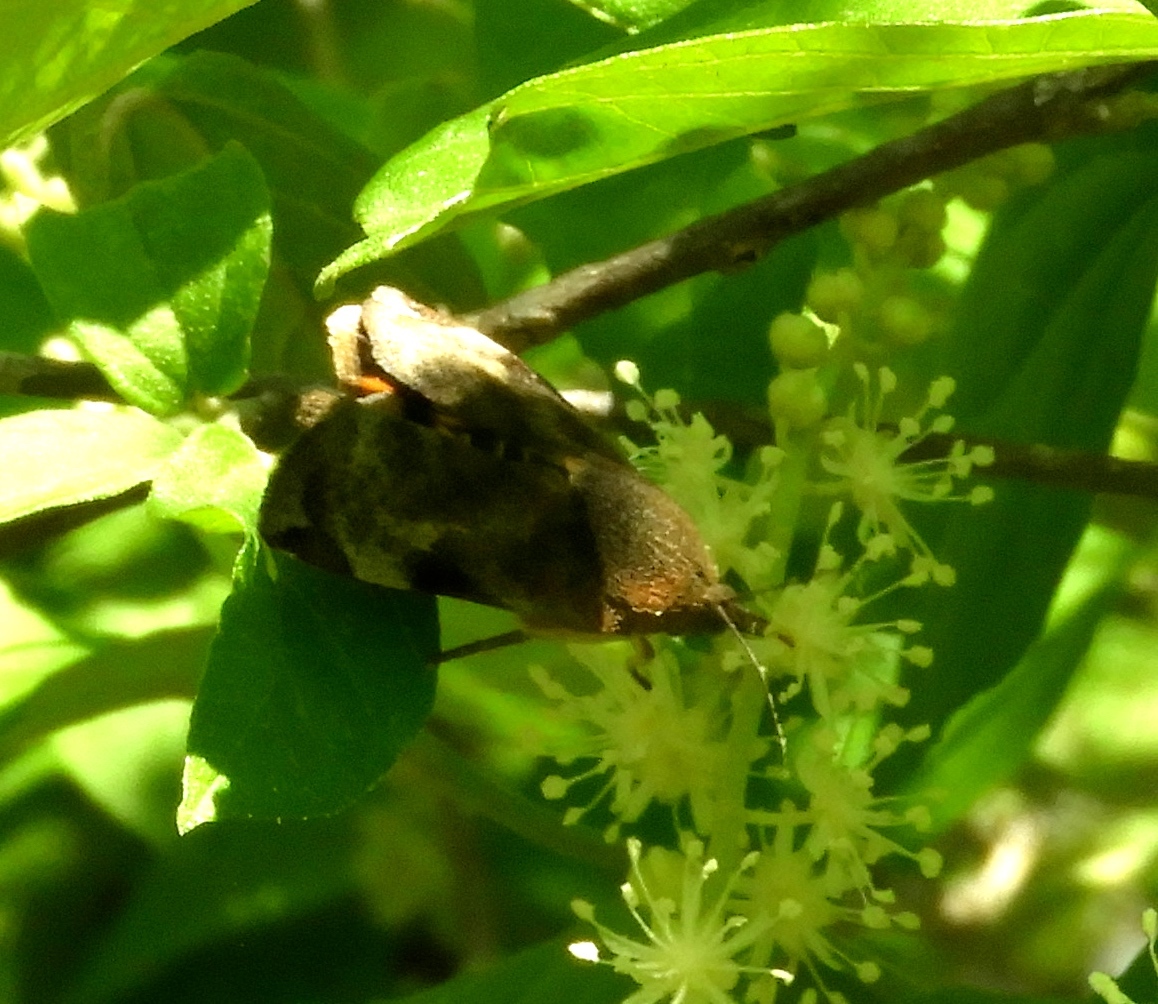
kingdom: Animalia
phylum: Arthropoda
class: Insecta
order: Lepidoptera
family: Hyblaeidae
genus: Hyblaea
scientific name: Hyblaea
